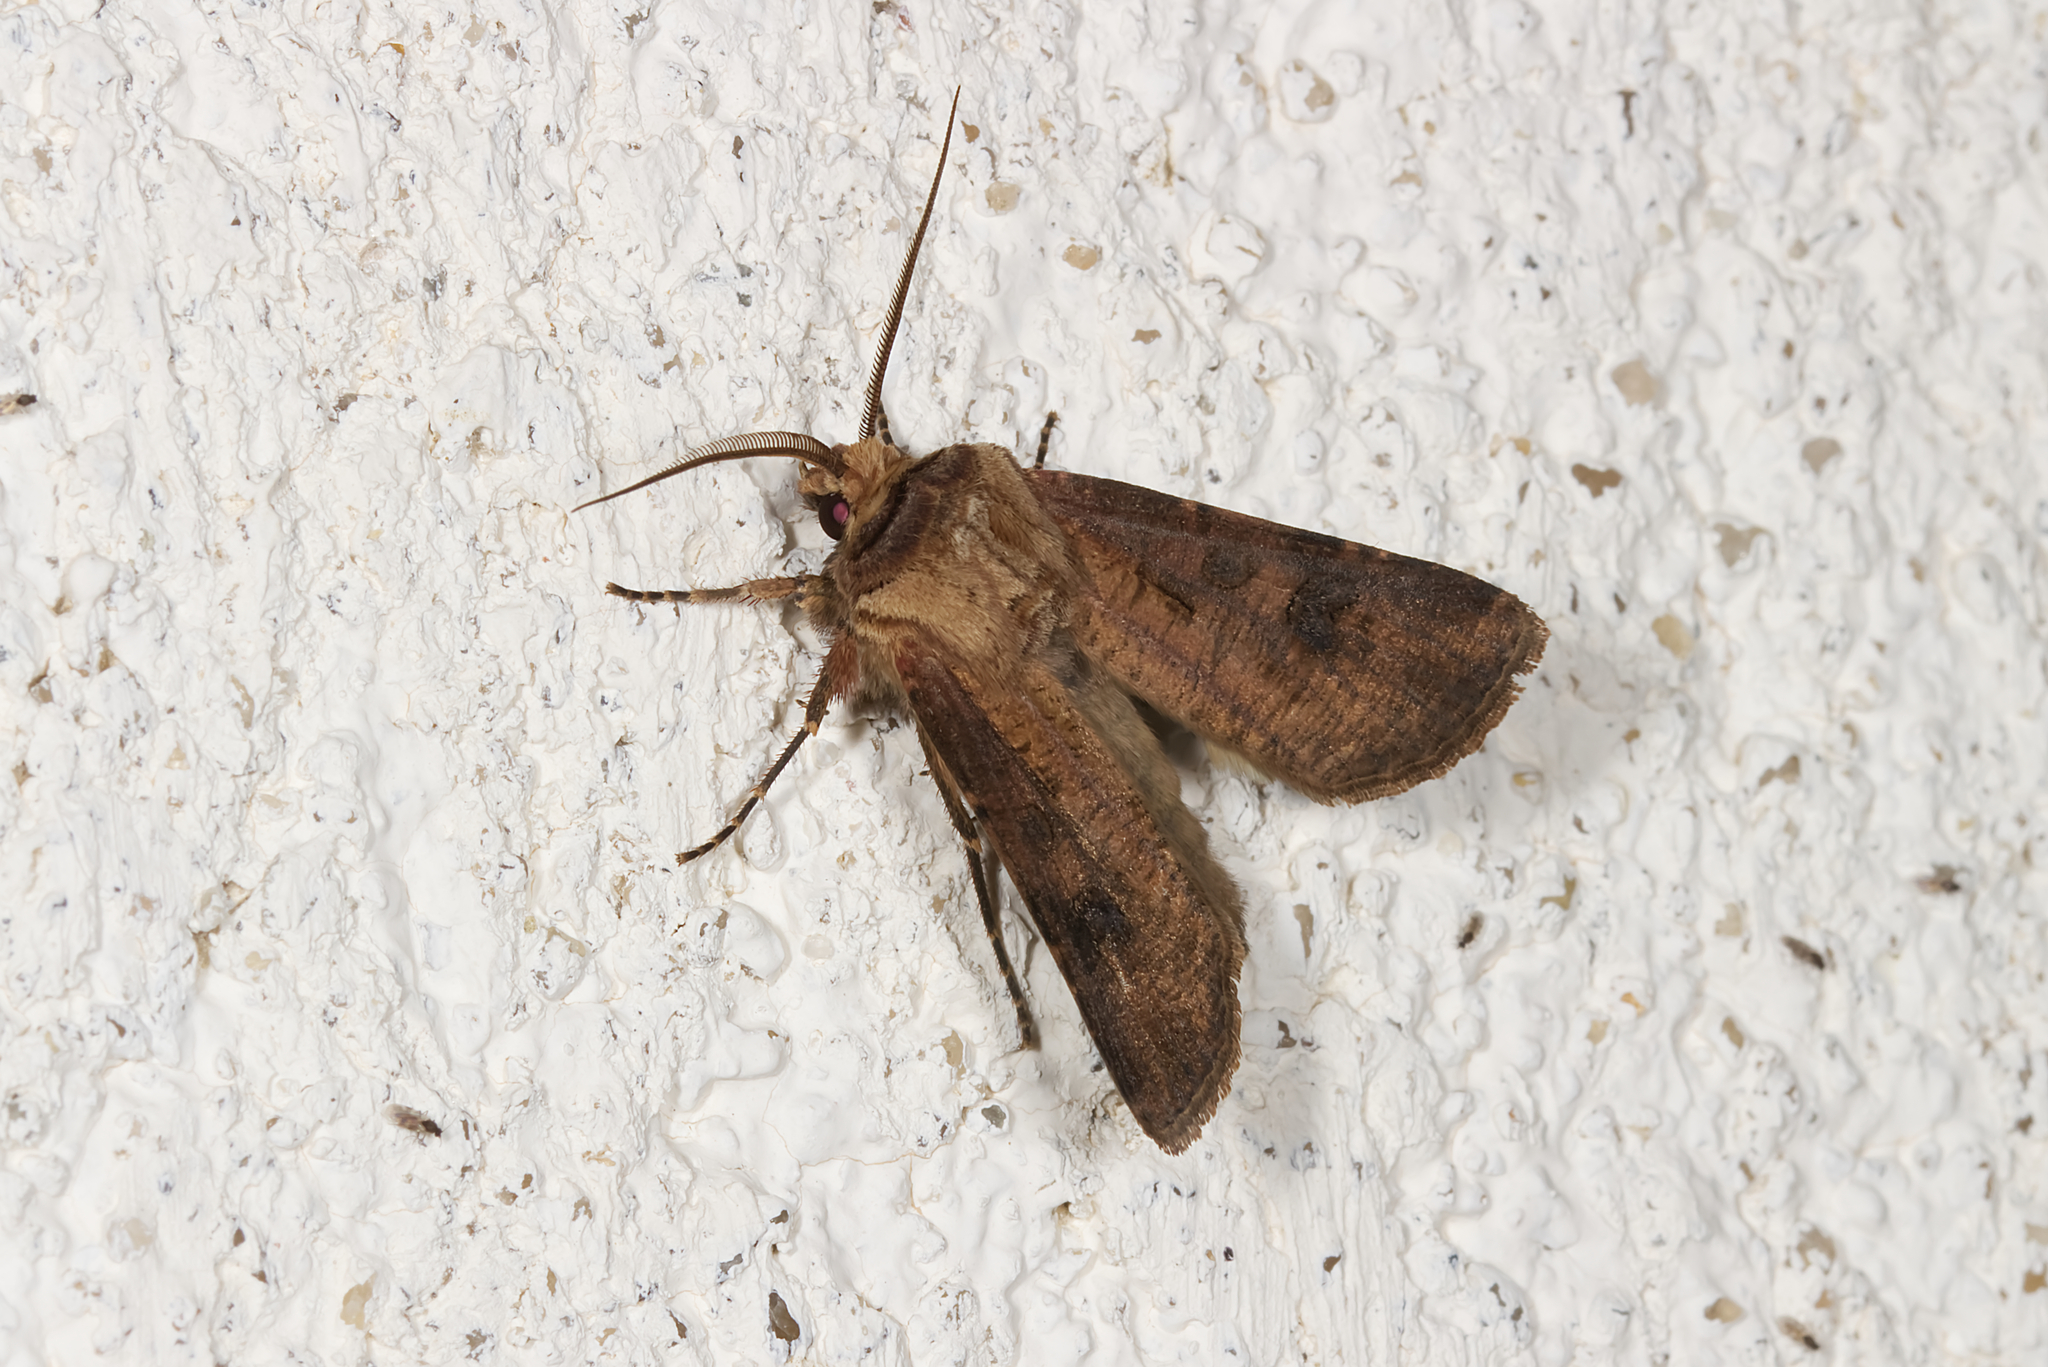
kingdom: Animalia
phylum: Arthropoda
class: Insecta
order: Lepidoptera
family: Noctuidae
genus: Agrotis
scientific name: Agrotis clavis
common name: Heart and club
